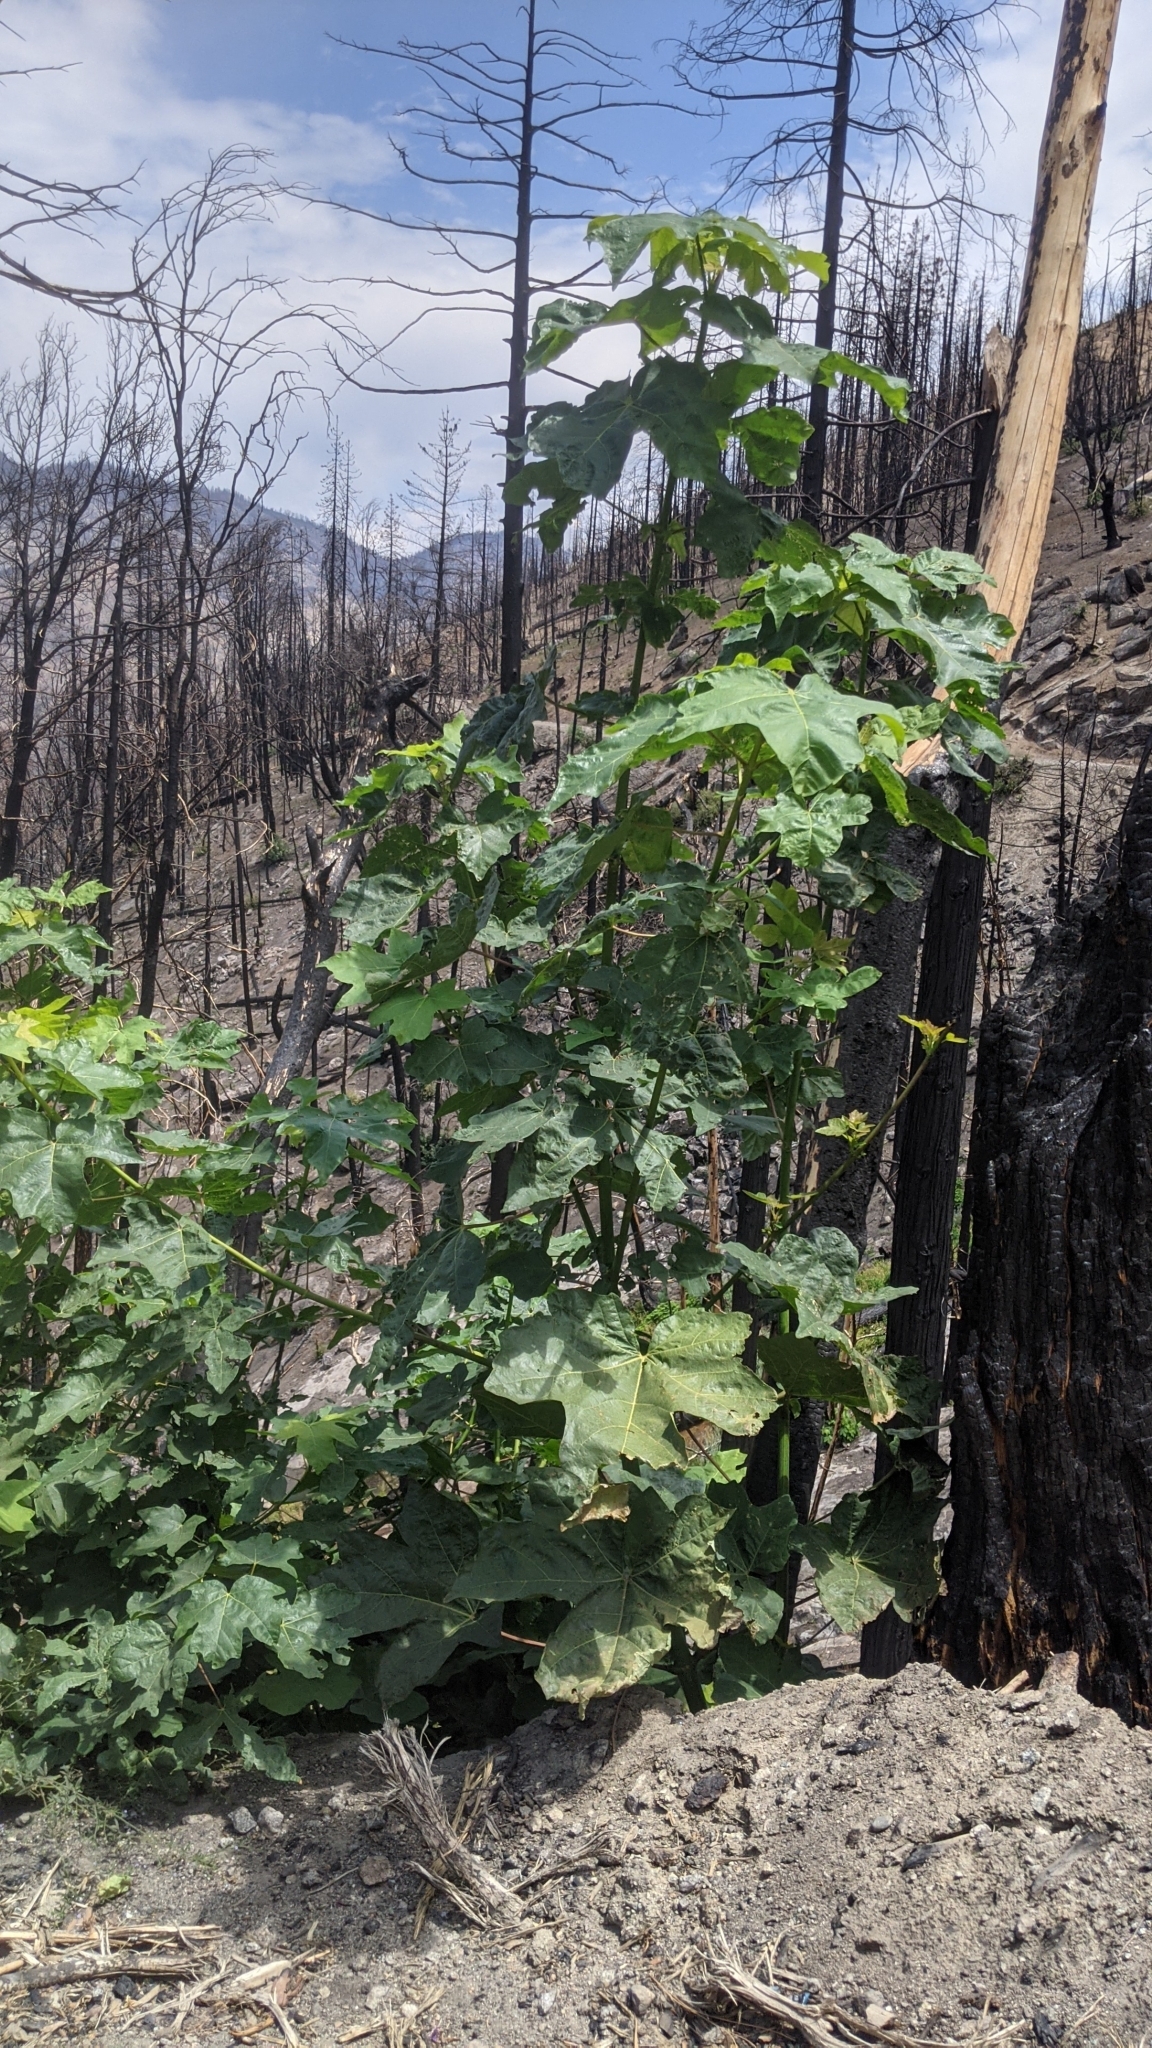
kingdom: Plantae
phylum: Tracheophyta
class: Magnoliopsida
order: Sapindales
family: Sapindaceae
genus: Acer
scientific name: Acer macrophyllum
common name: Oregon maple
